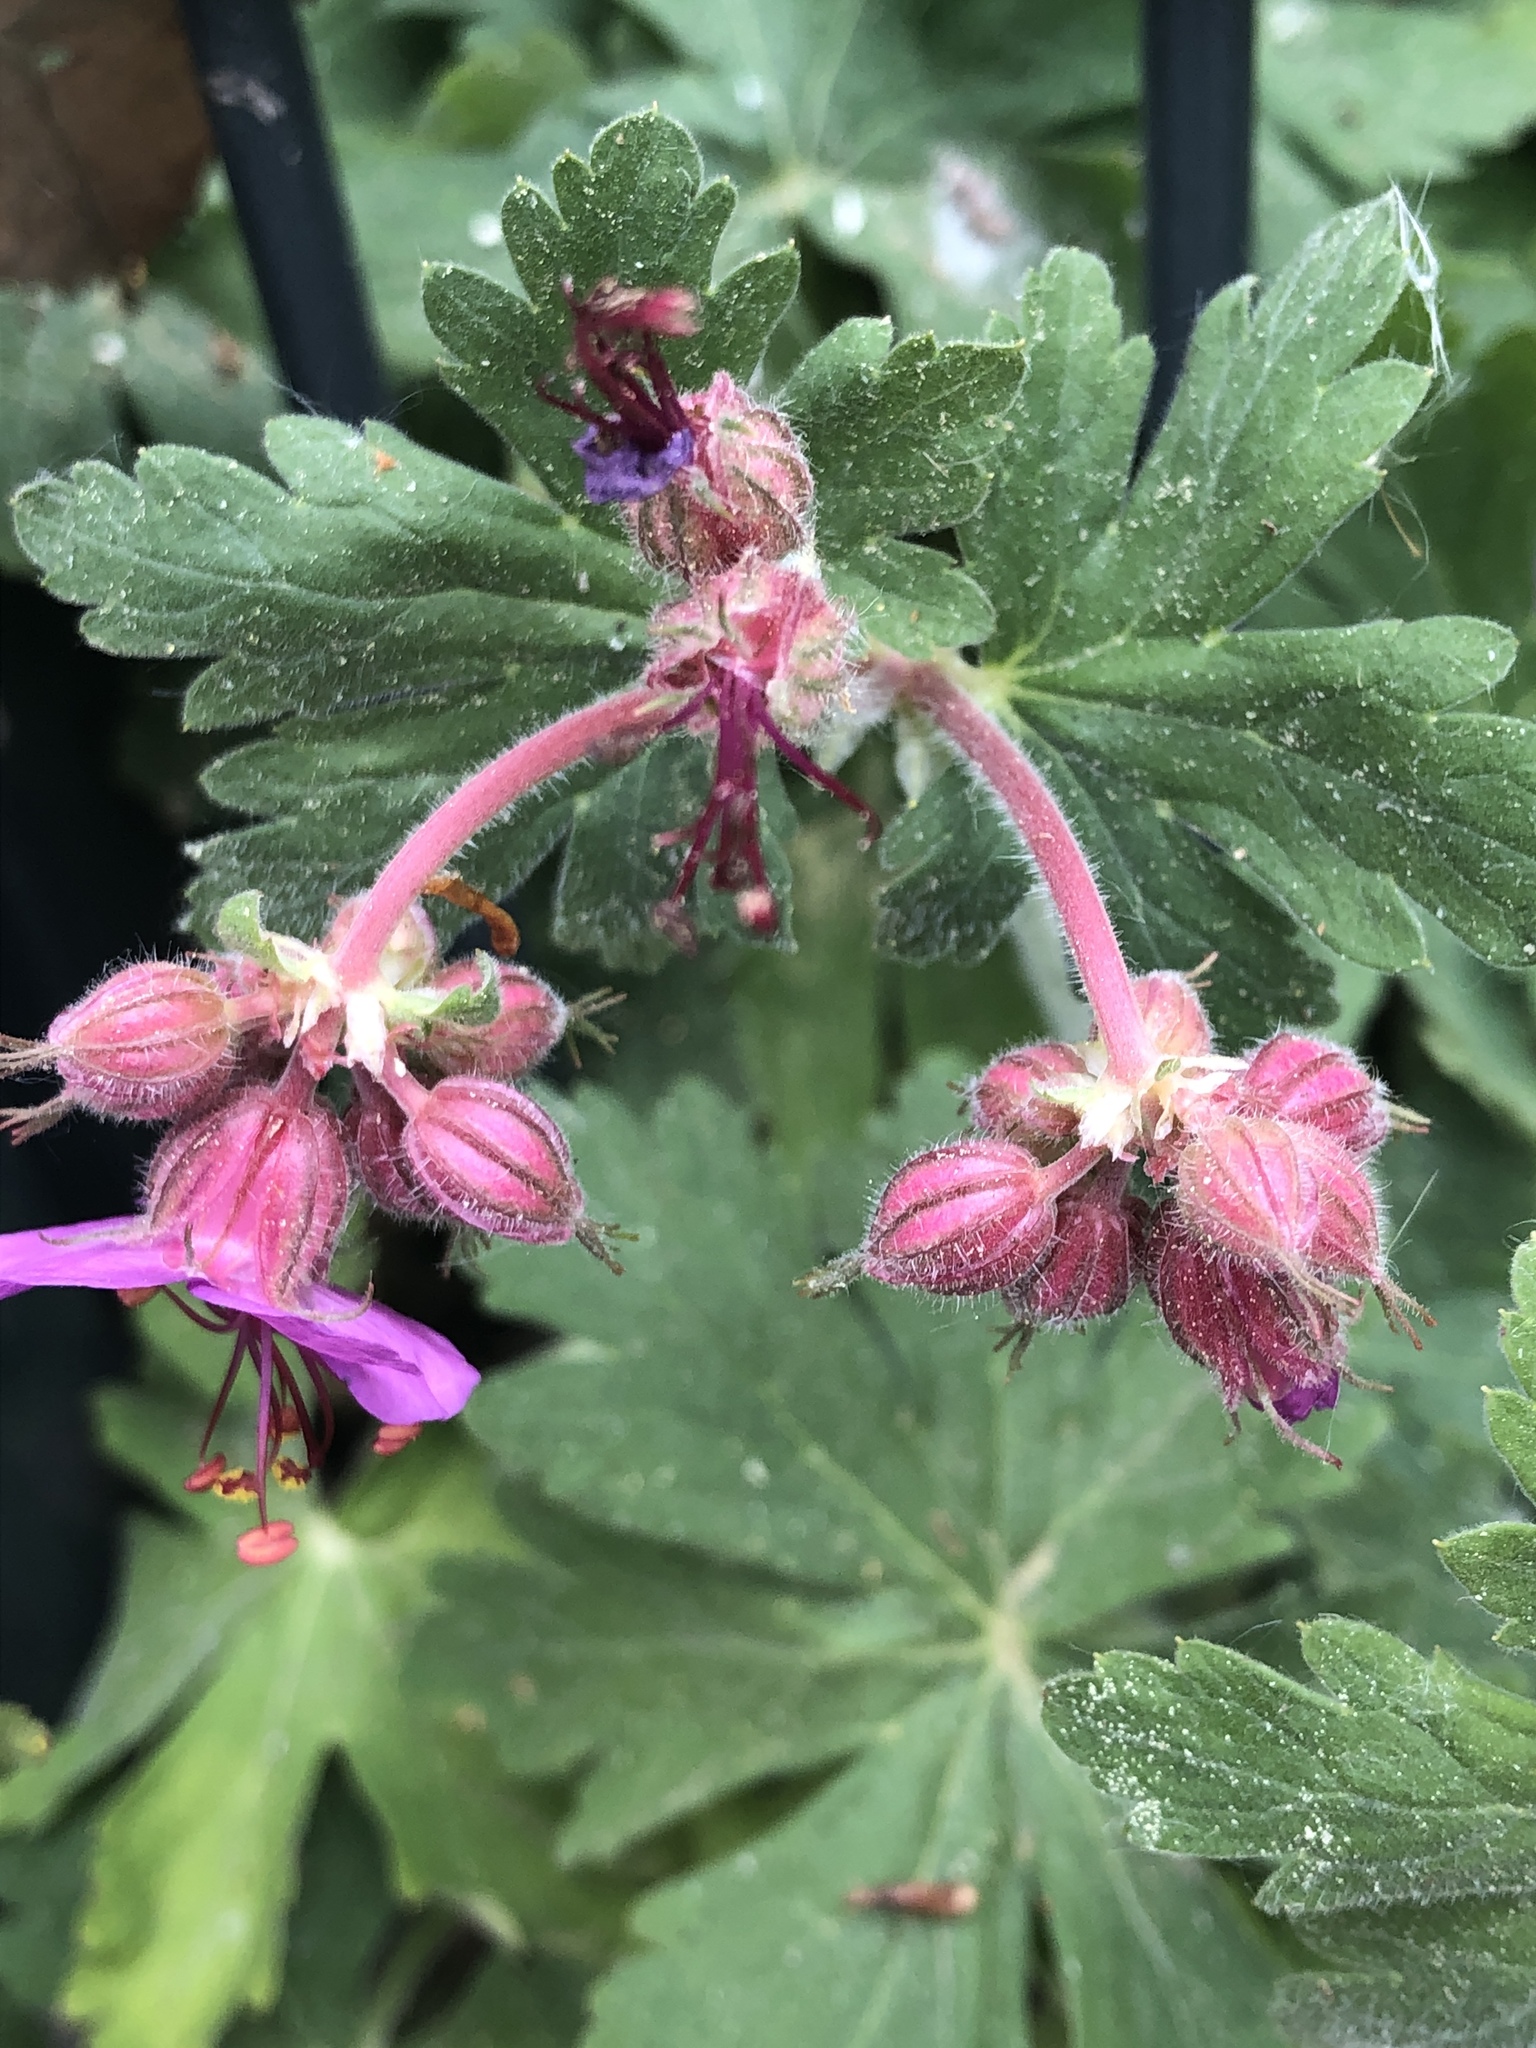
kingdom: Plantae
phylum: Tracheophyta
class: Magnoliopsida
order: Geraniales
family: Geraniaceae
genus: Geranium
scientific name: Geranium macrorrhizum
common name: Rock crane's-bill
